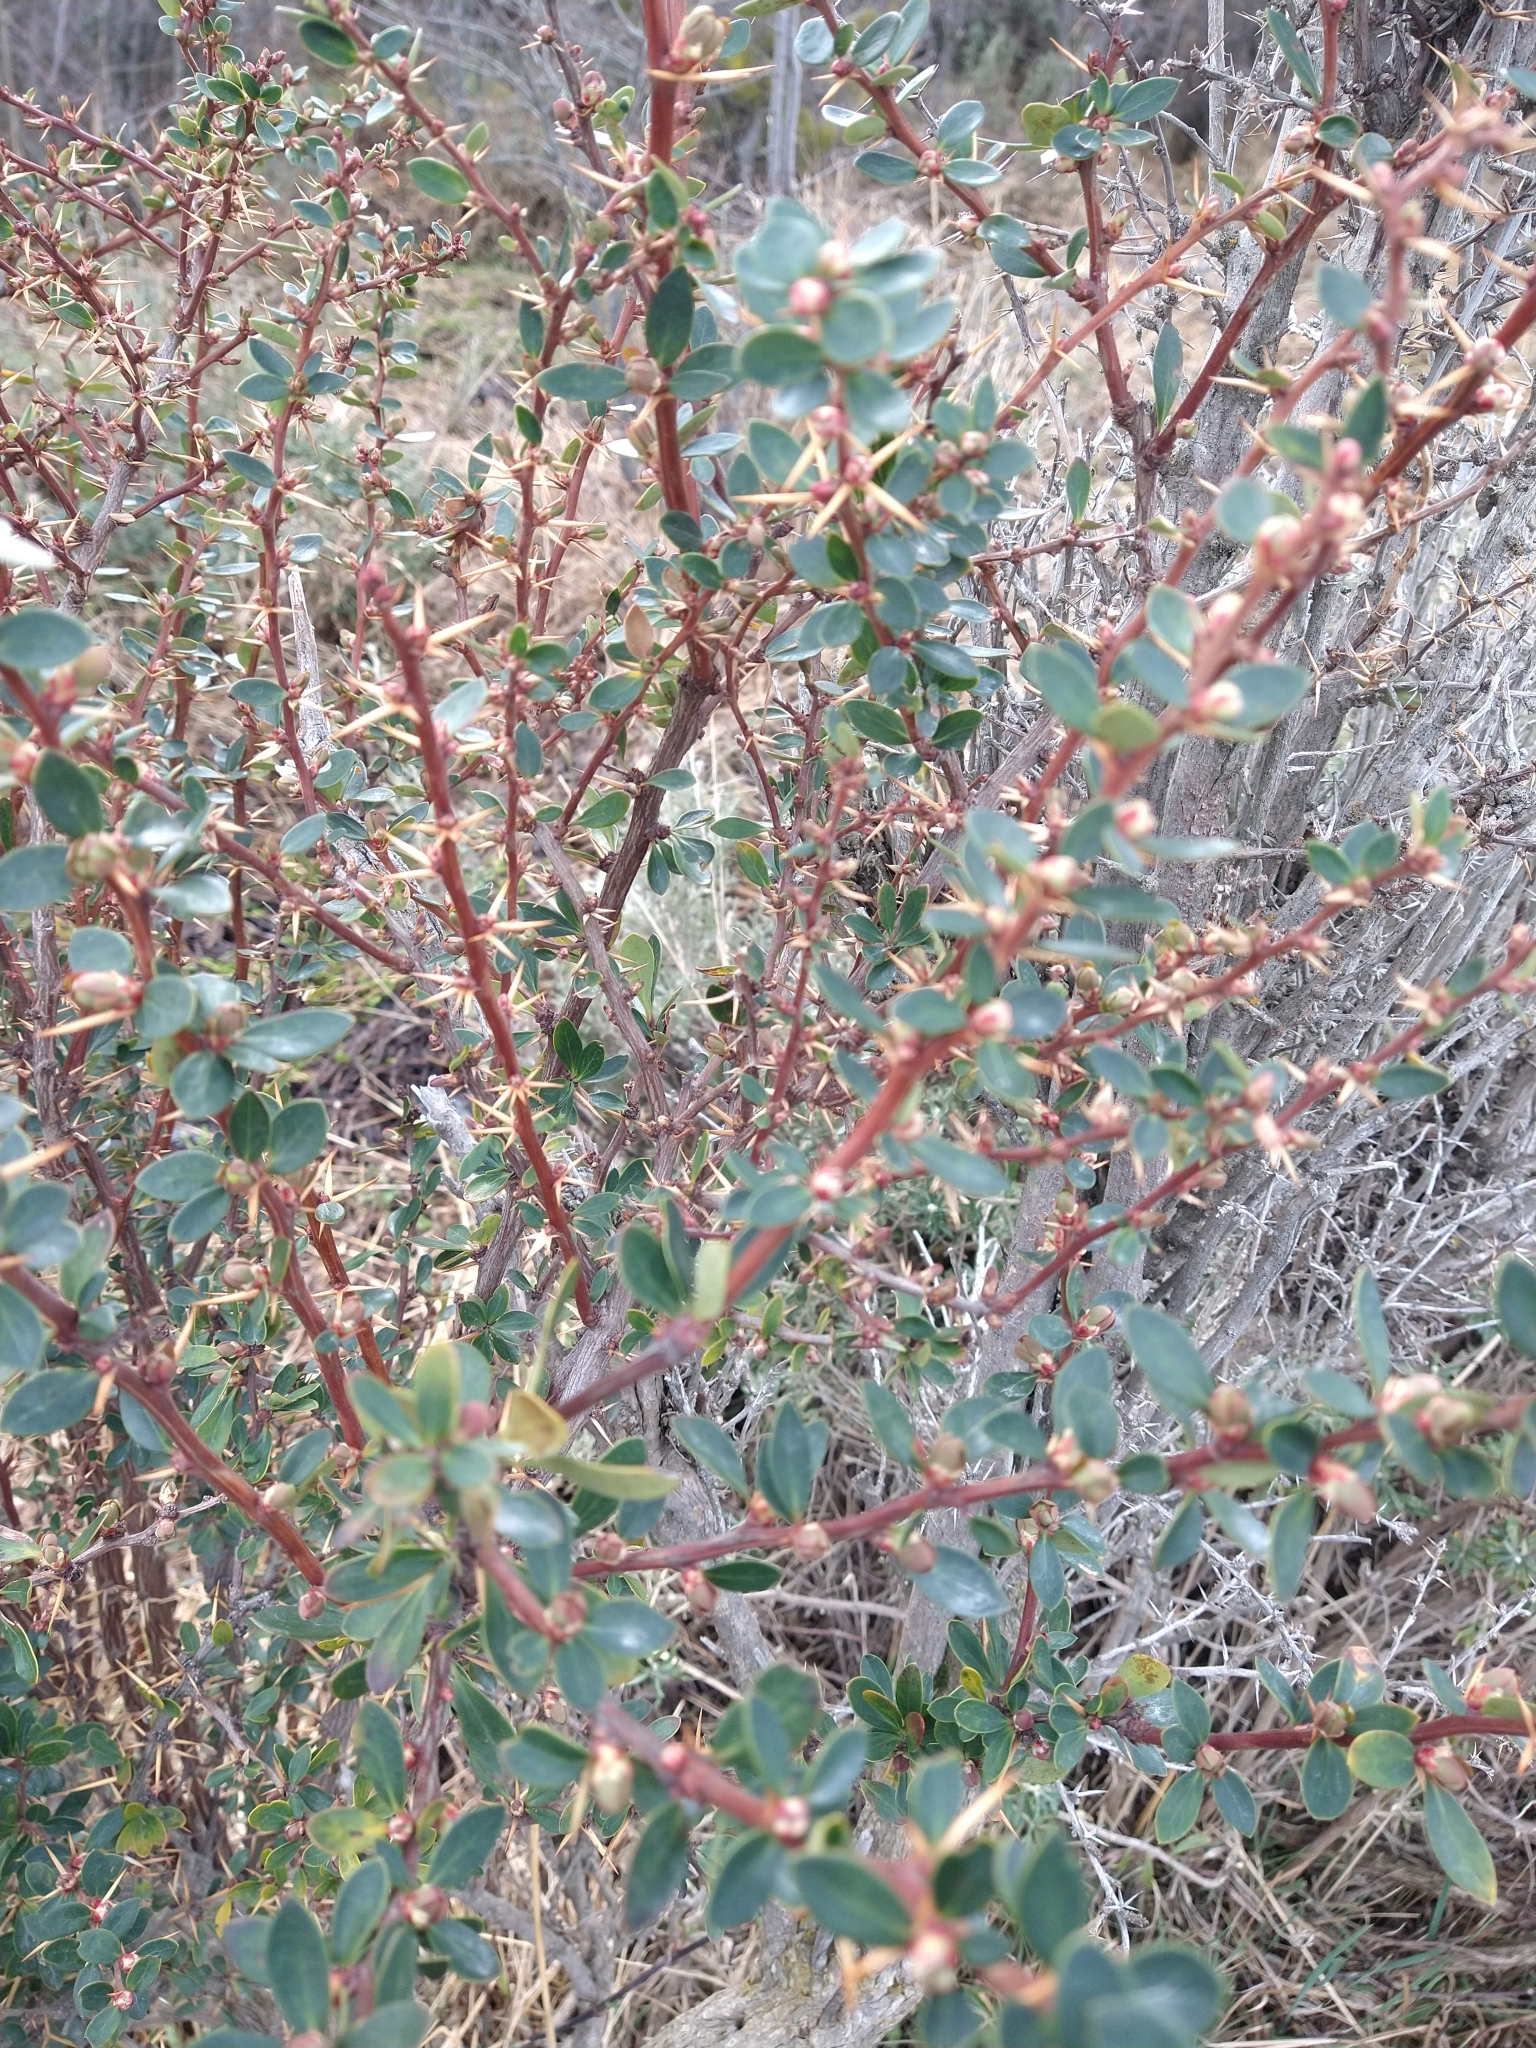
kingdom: Plantae
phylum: Tracheophyta
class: Magnoliopsida
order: Ranunculales
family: Berberidaceae
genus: Berberis
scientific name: Berberis microphylla
